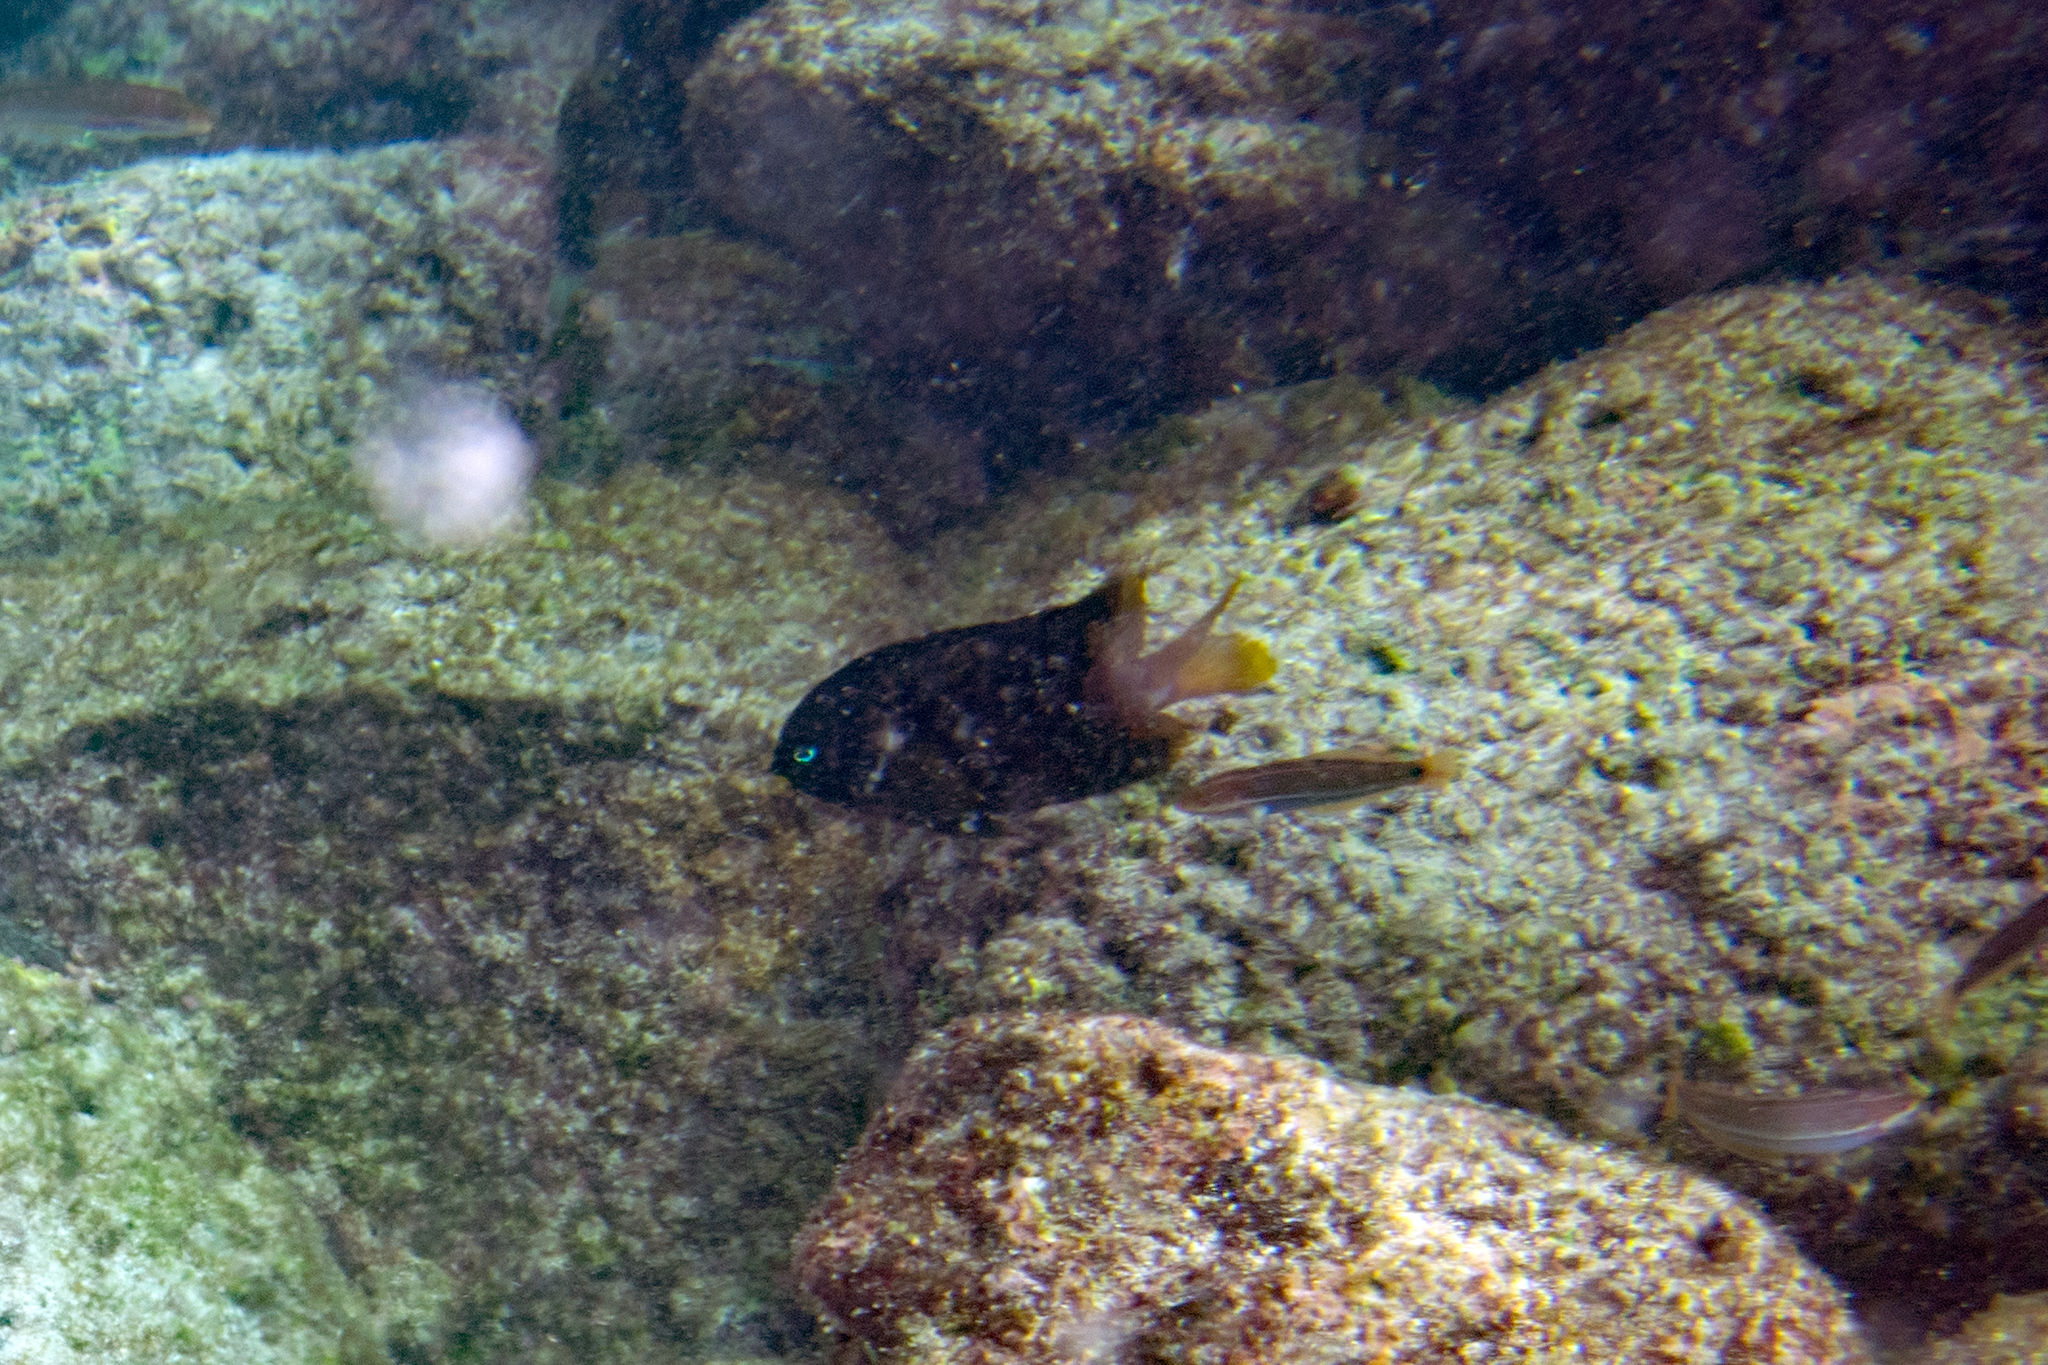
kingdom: Animalia
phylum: Chordata
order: Perciformes
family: Labridae
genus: Halichoeres
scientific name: Halichoeres dispilus
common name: Chameleon wrasse
